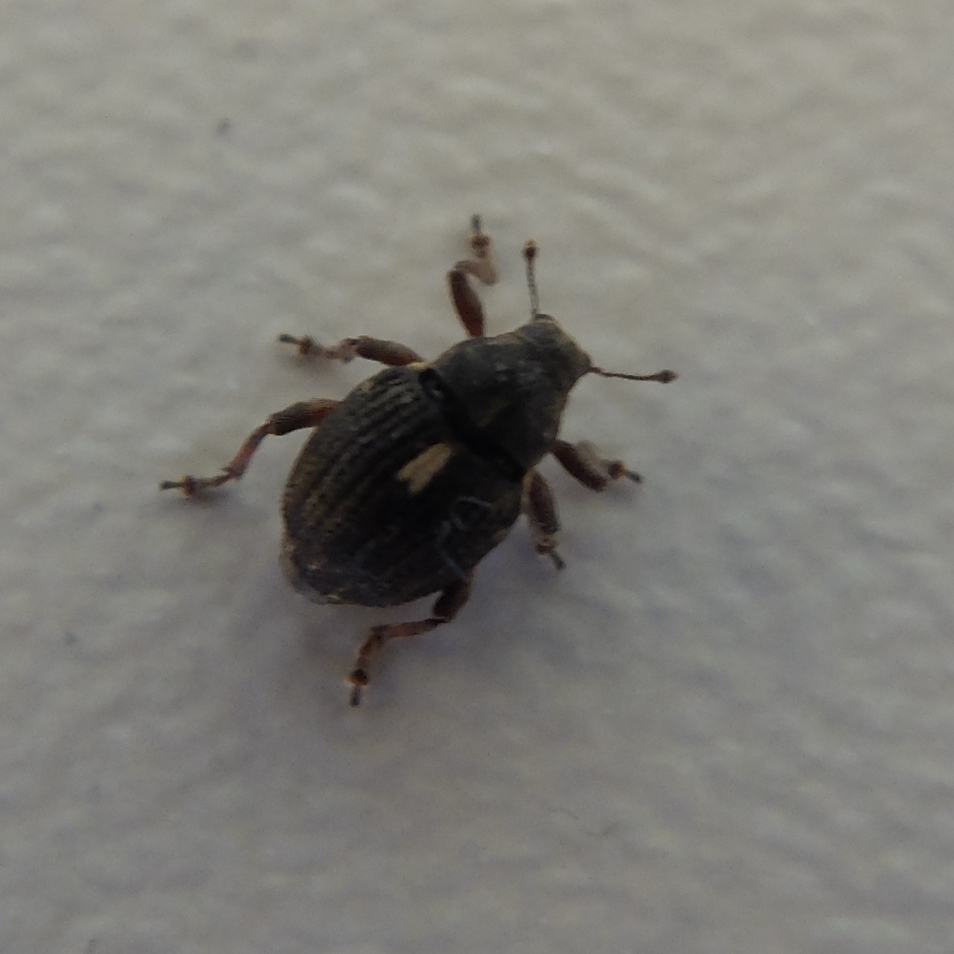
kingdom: Animalia
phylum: Arthropoda
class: Insecta
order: Coleoptera
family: Curculionidae
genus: Rhinoncus
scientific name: Rhinoncus leucostigma
